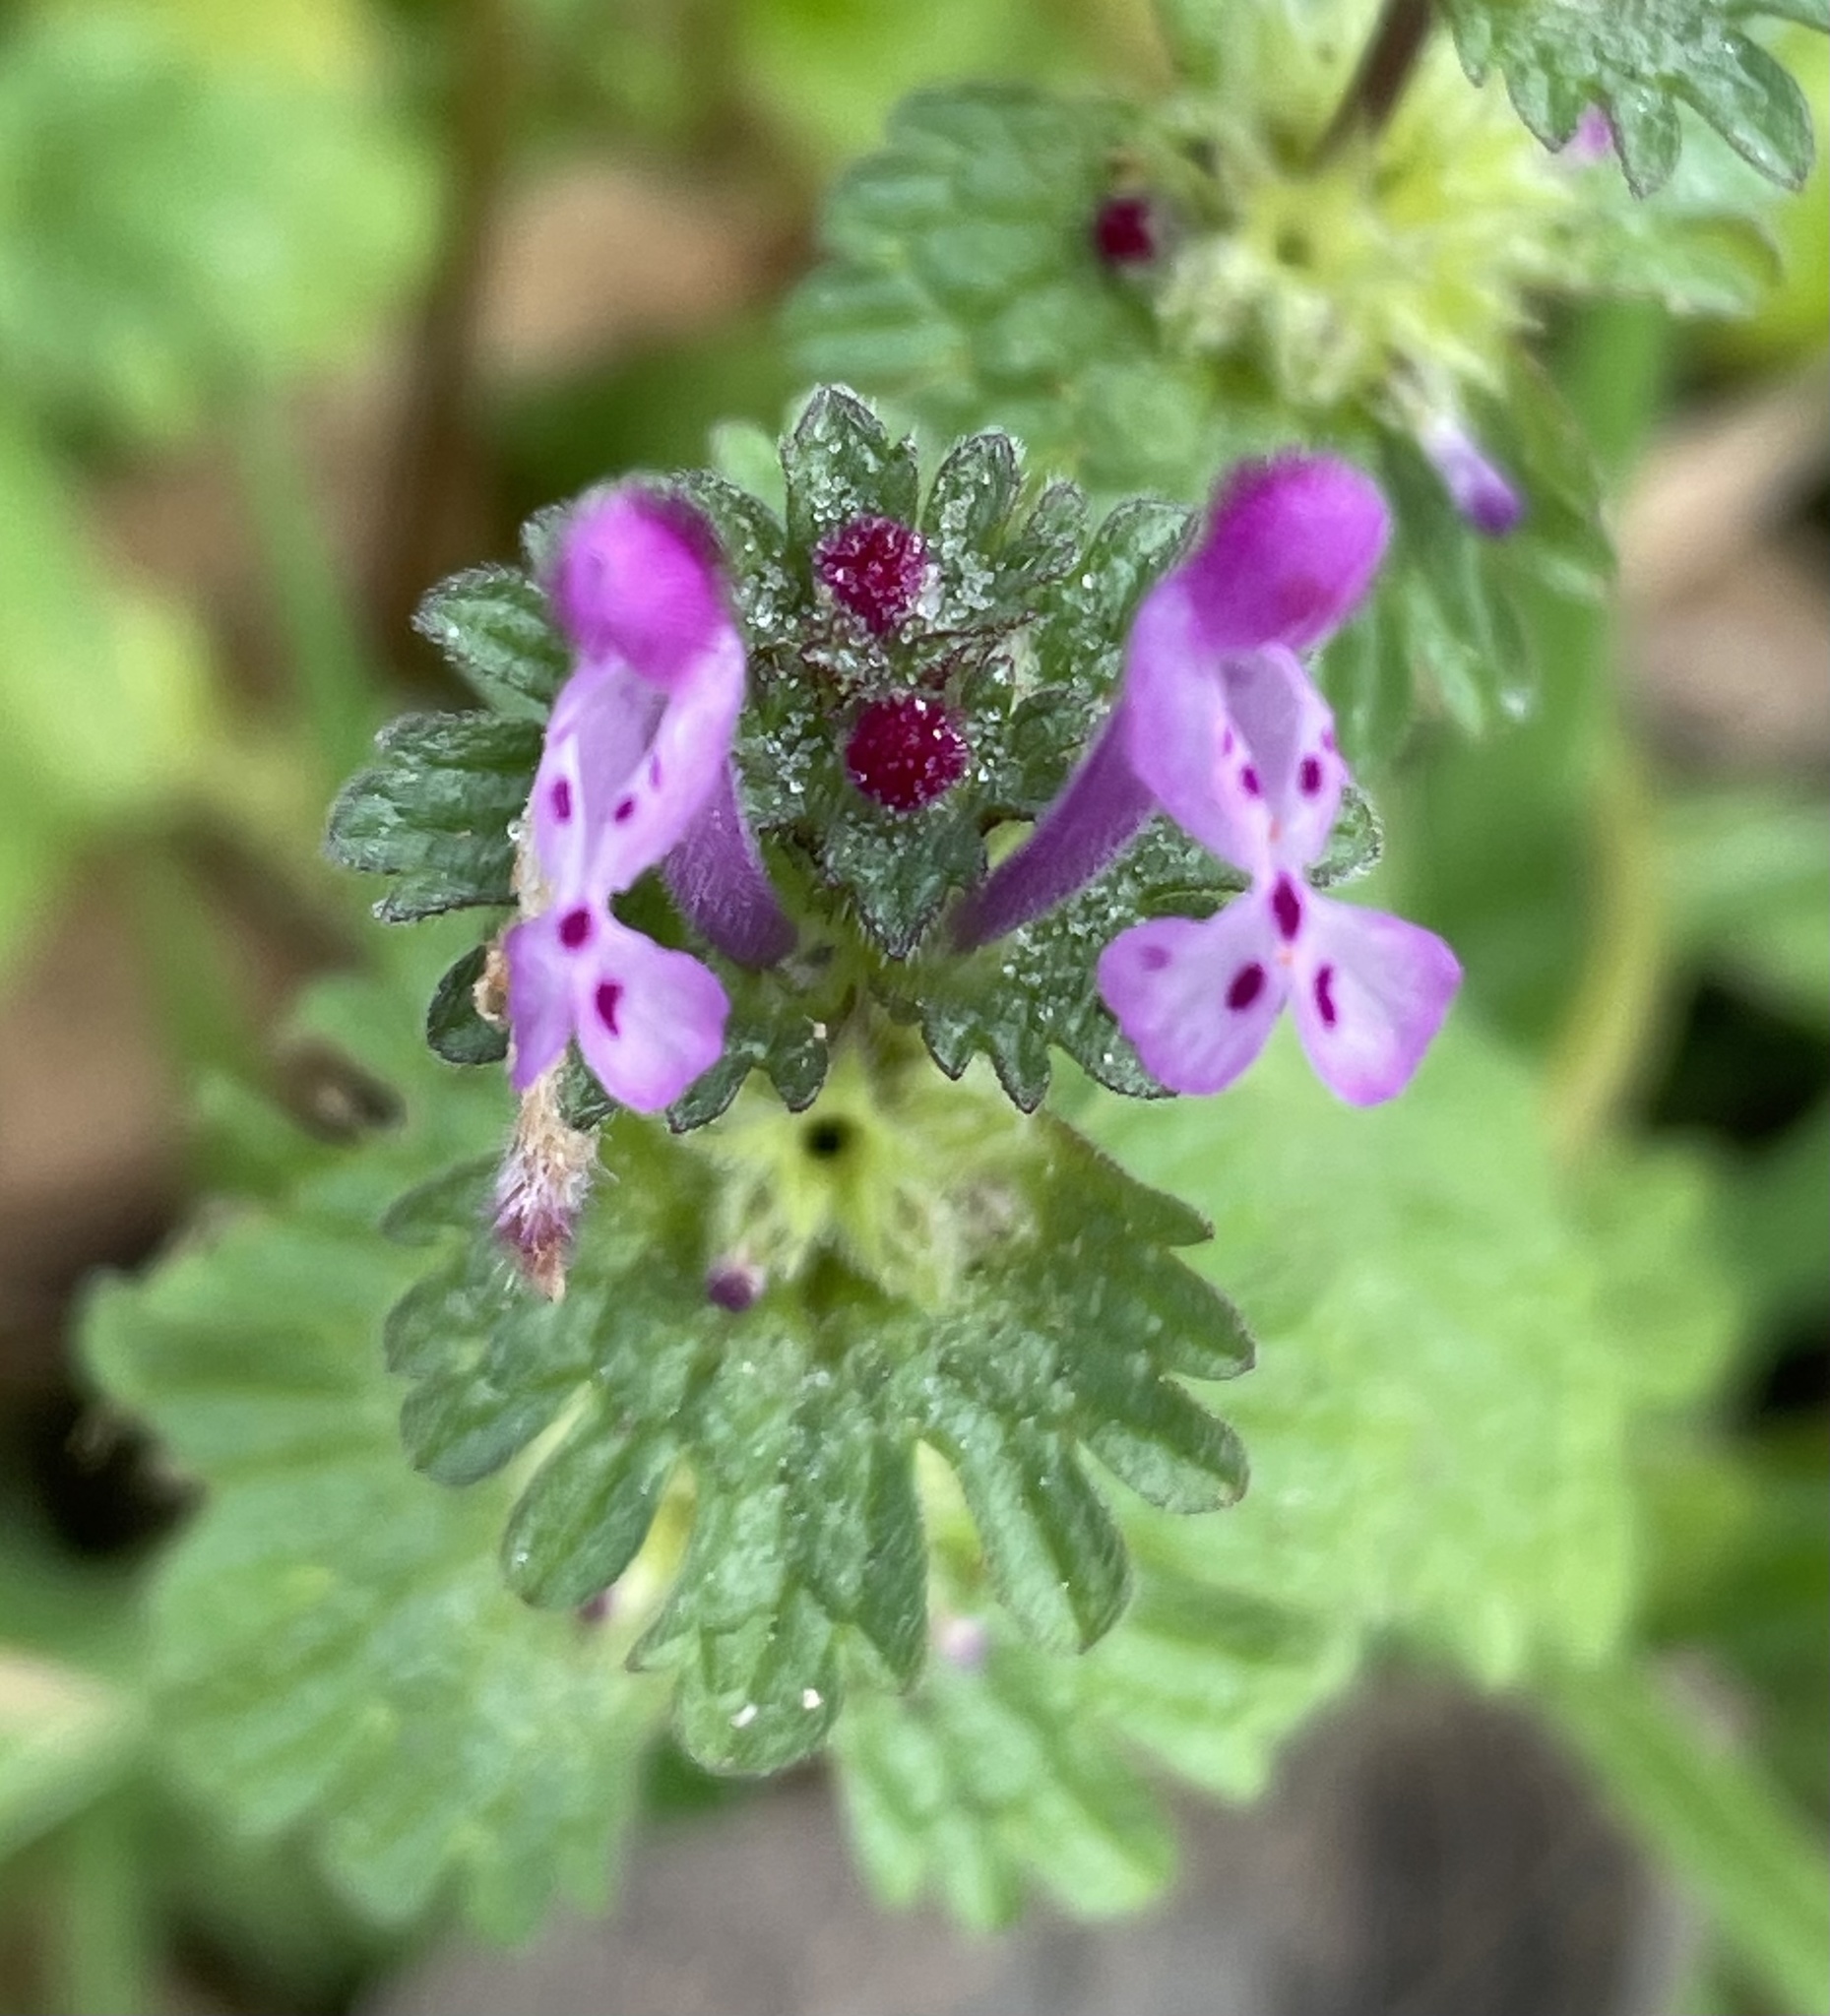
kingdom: Plantae
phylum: Tracheophyta
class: Magnoliopsida
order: Lamiales
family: Lamiaceae
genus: Lamium
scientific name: Lamium amplexicaule
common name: Henbit dead-nettle
